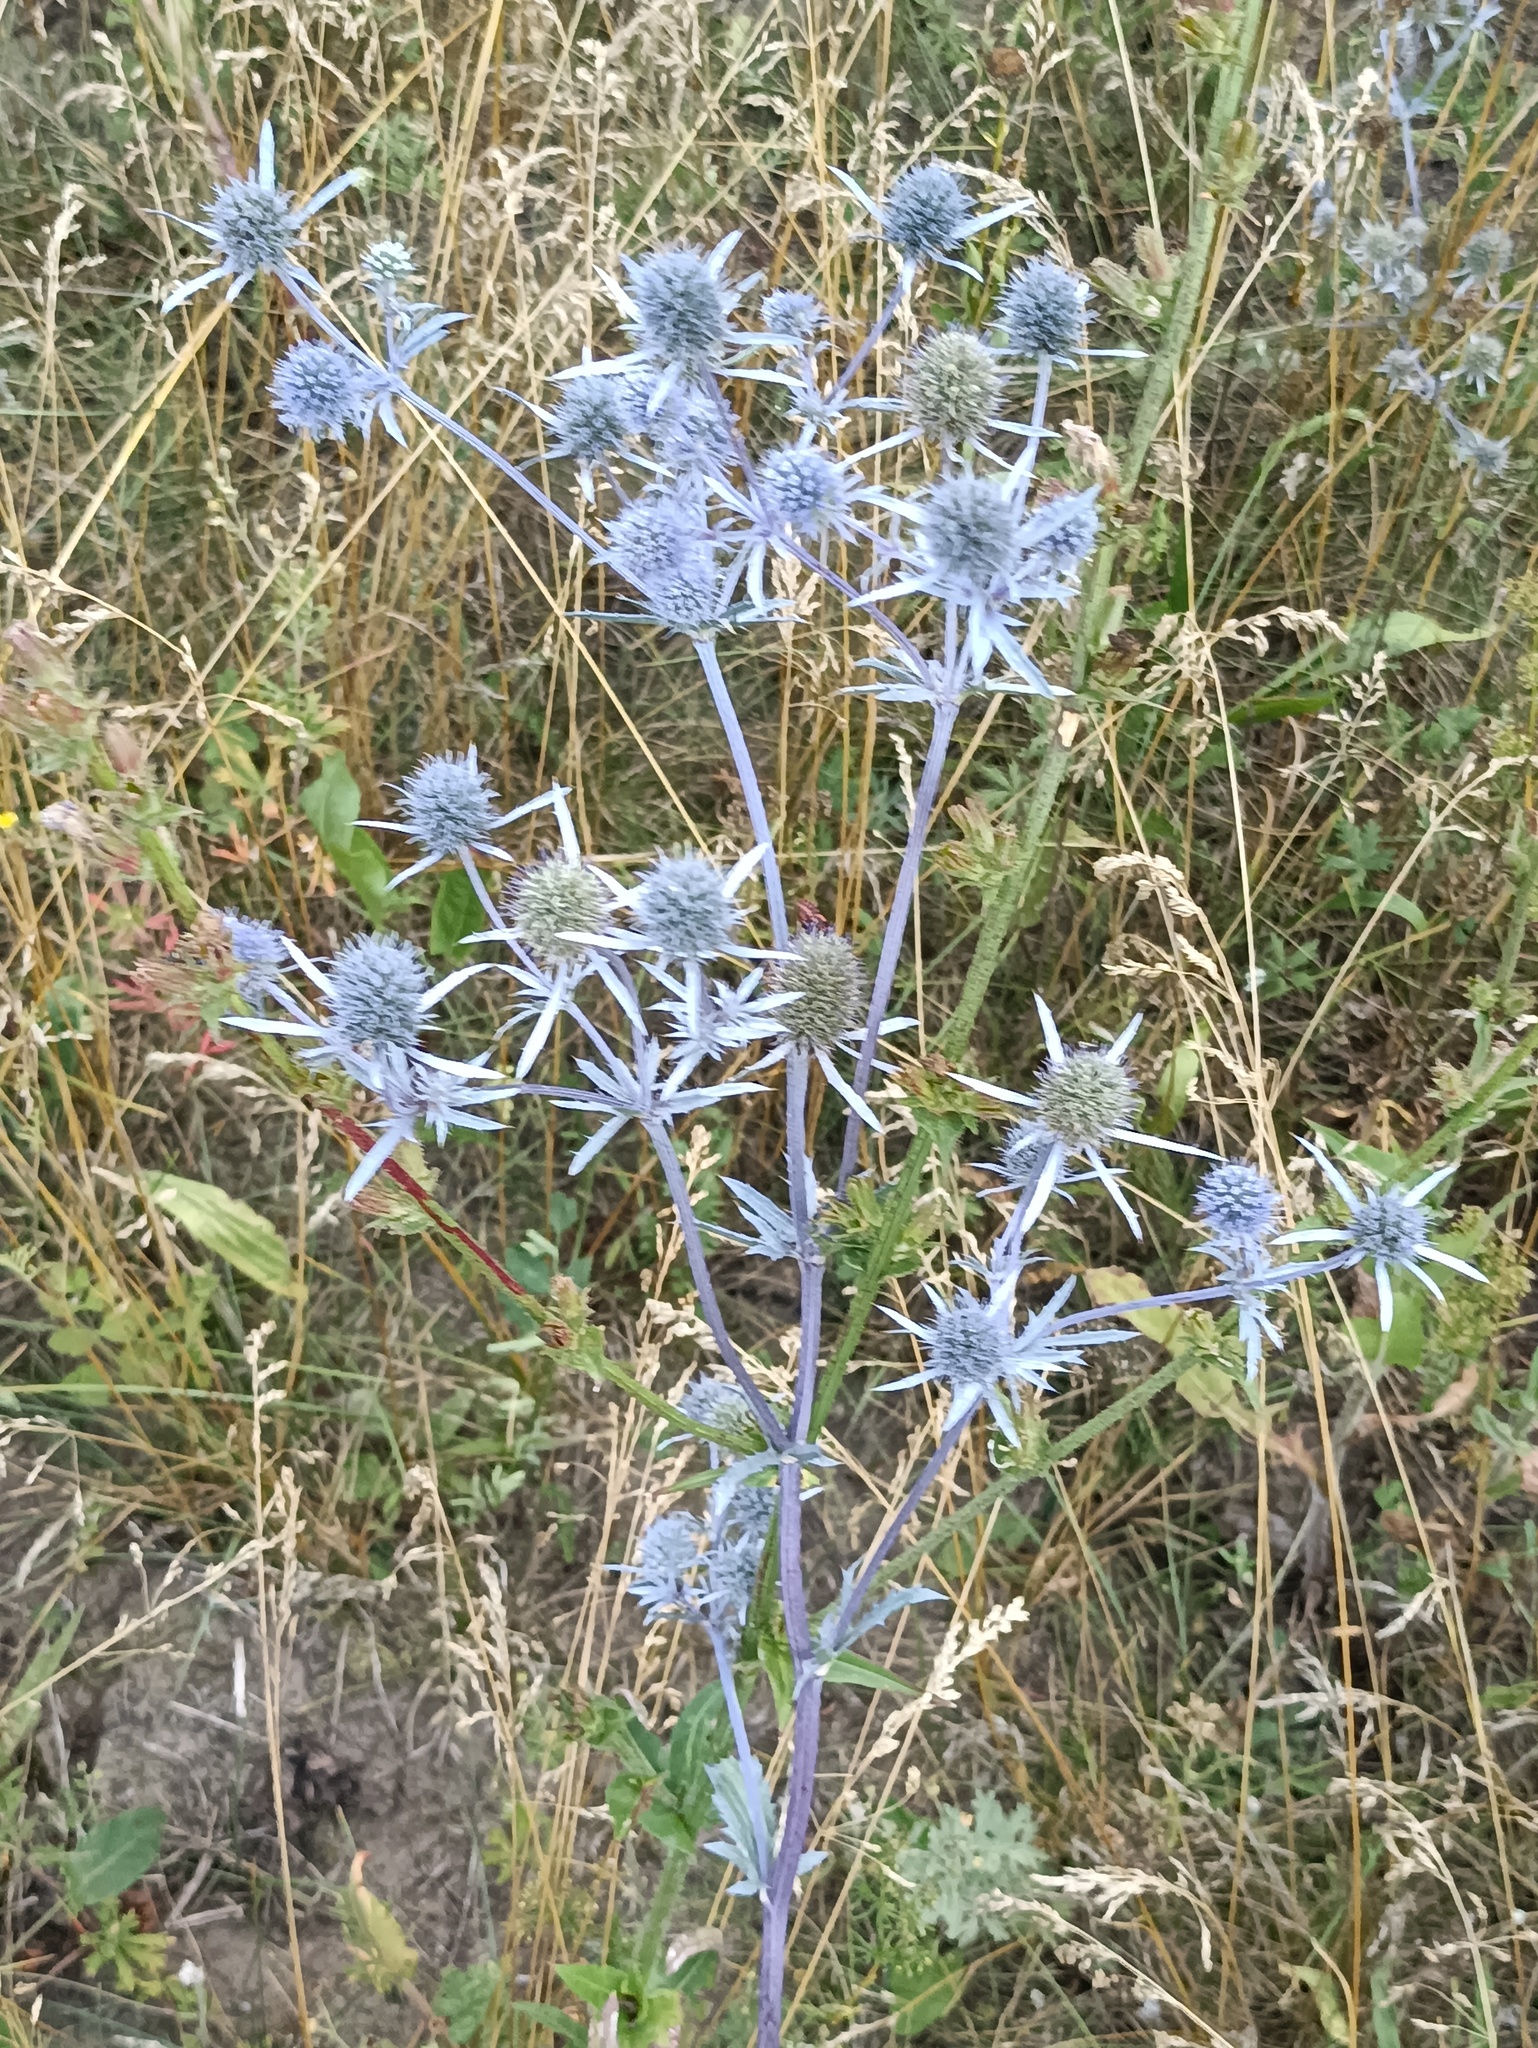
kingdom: Plantae
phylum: Tracheophyta
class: Magnoliopsida
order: Apiales
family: Apiaceae
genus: Eryngium
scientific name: Eryngium planum
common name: Blue eryngo
